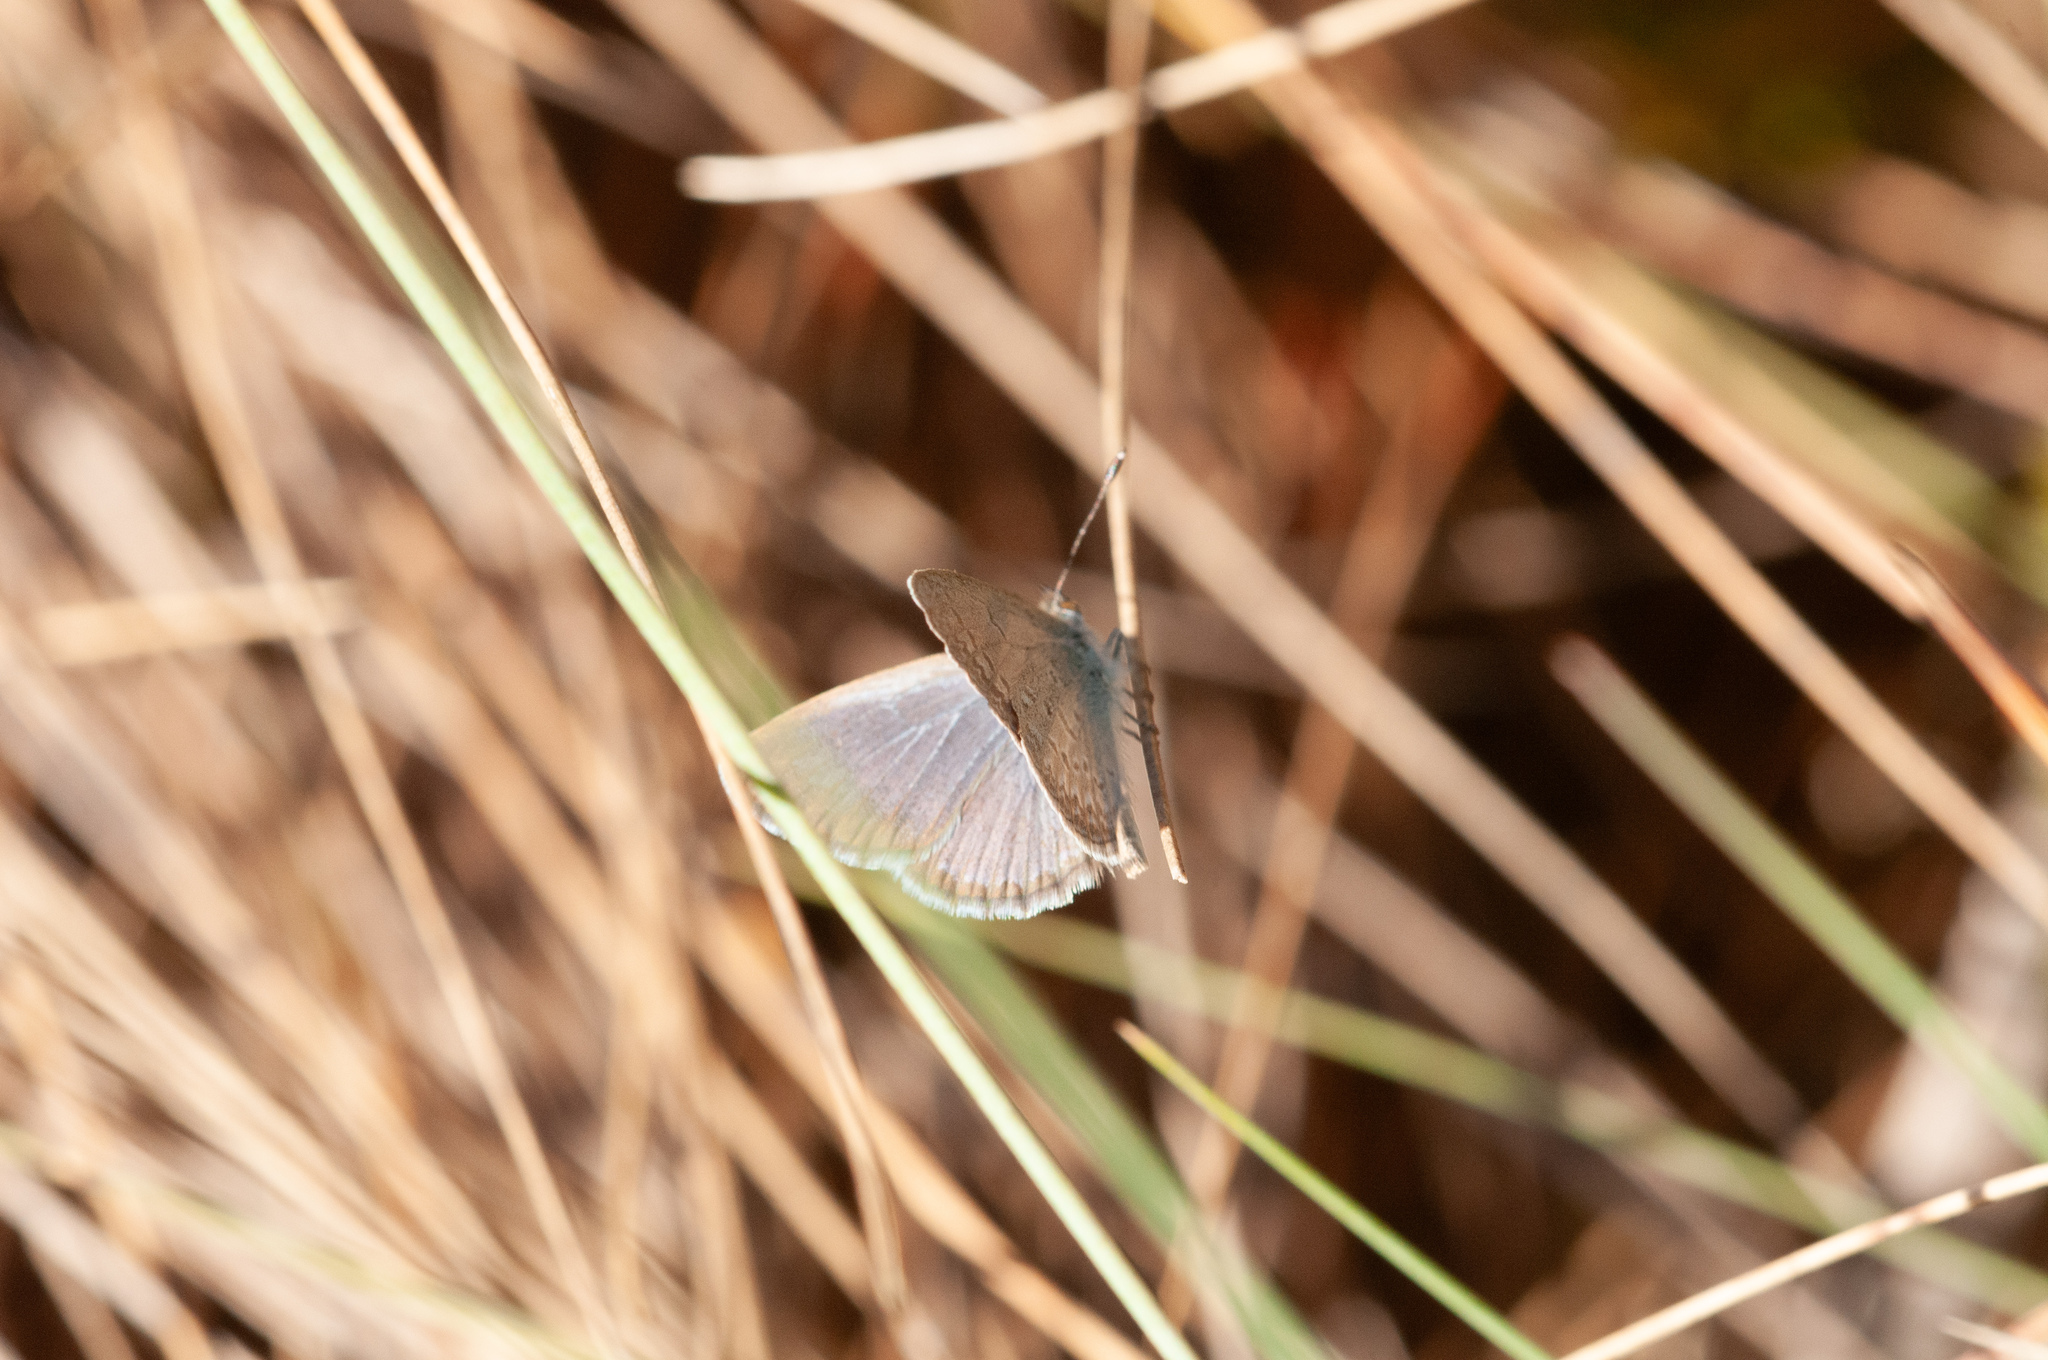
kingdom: Animalia
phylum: Arthropoda
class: Insecta
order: Lepidoptera
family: Lycaenidae
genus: Zizina
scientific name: Zizina otis
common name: Lesser grass blue
